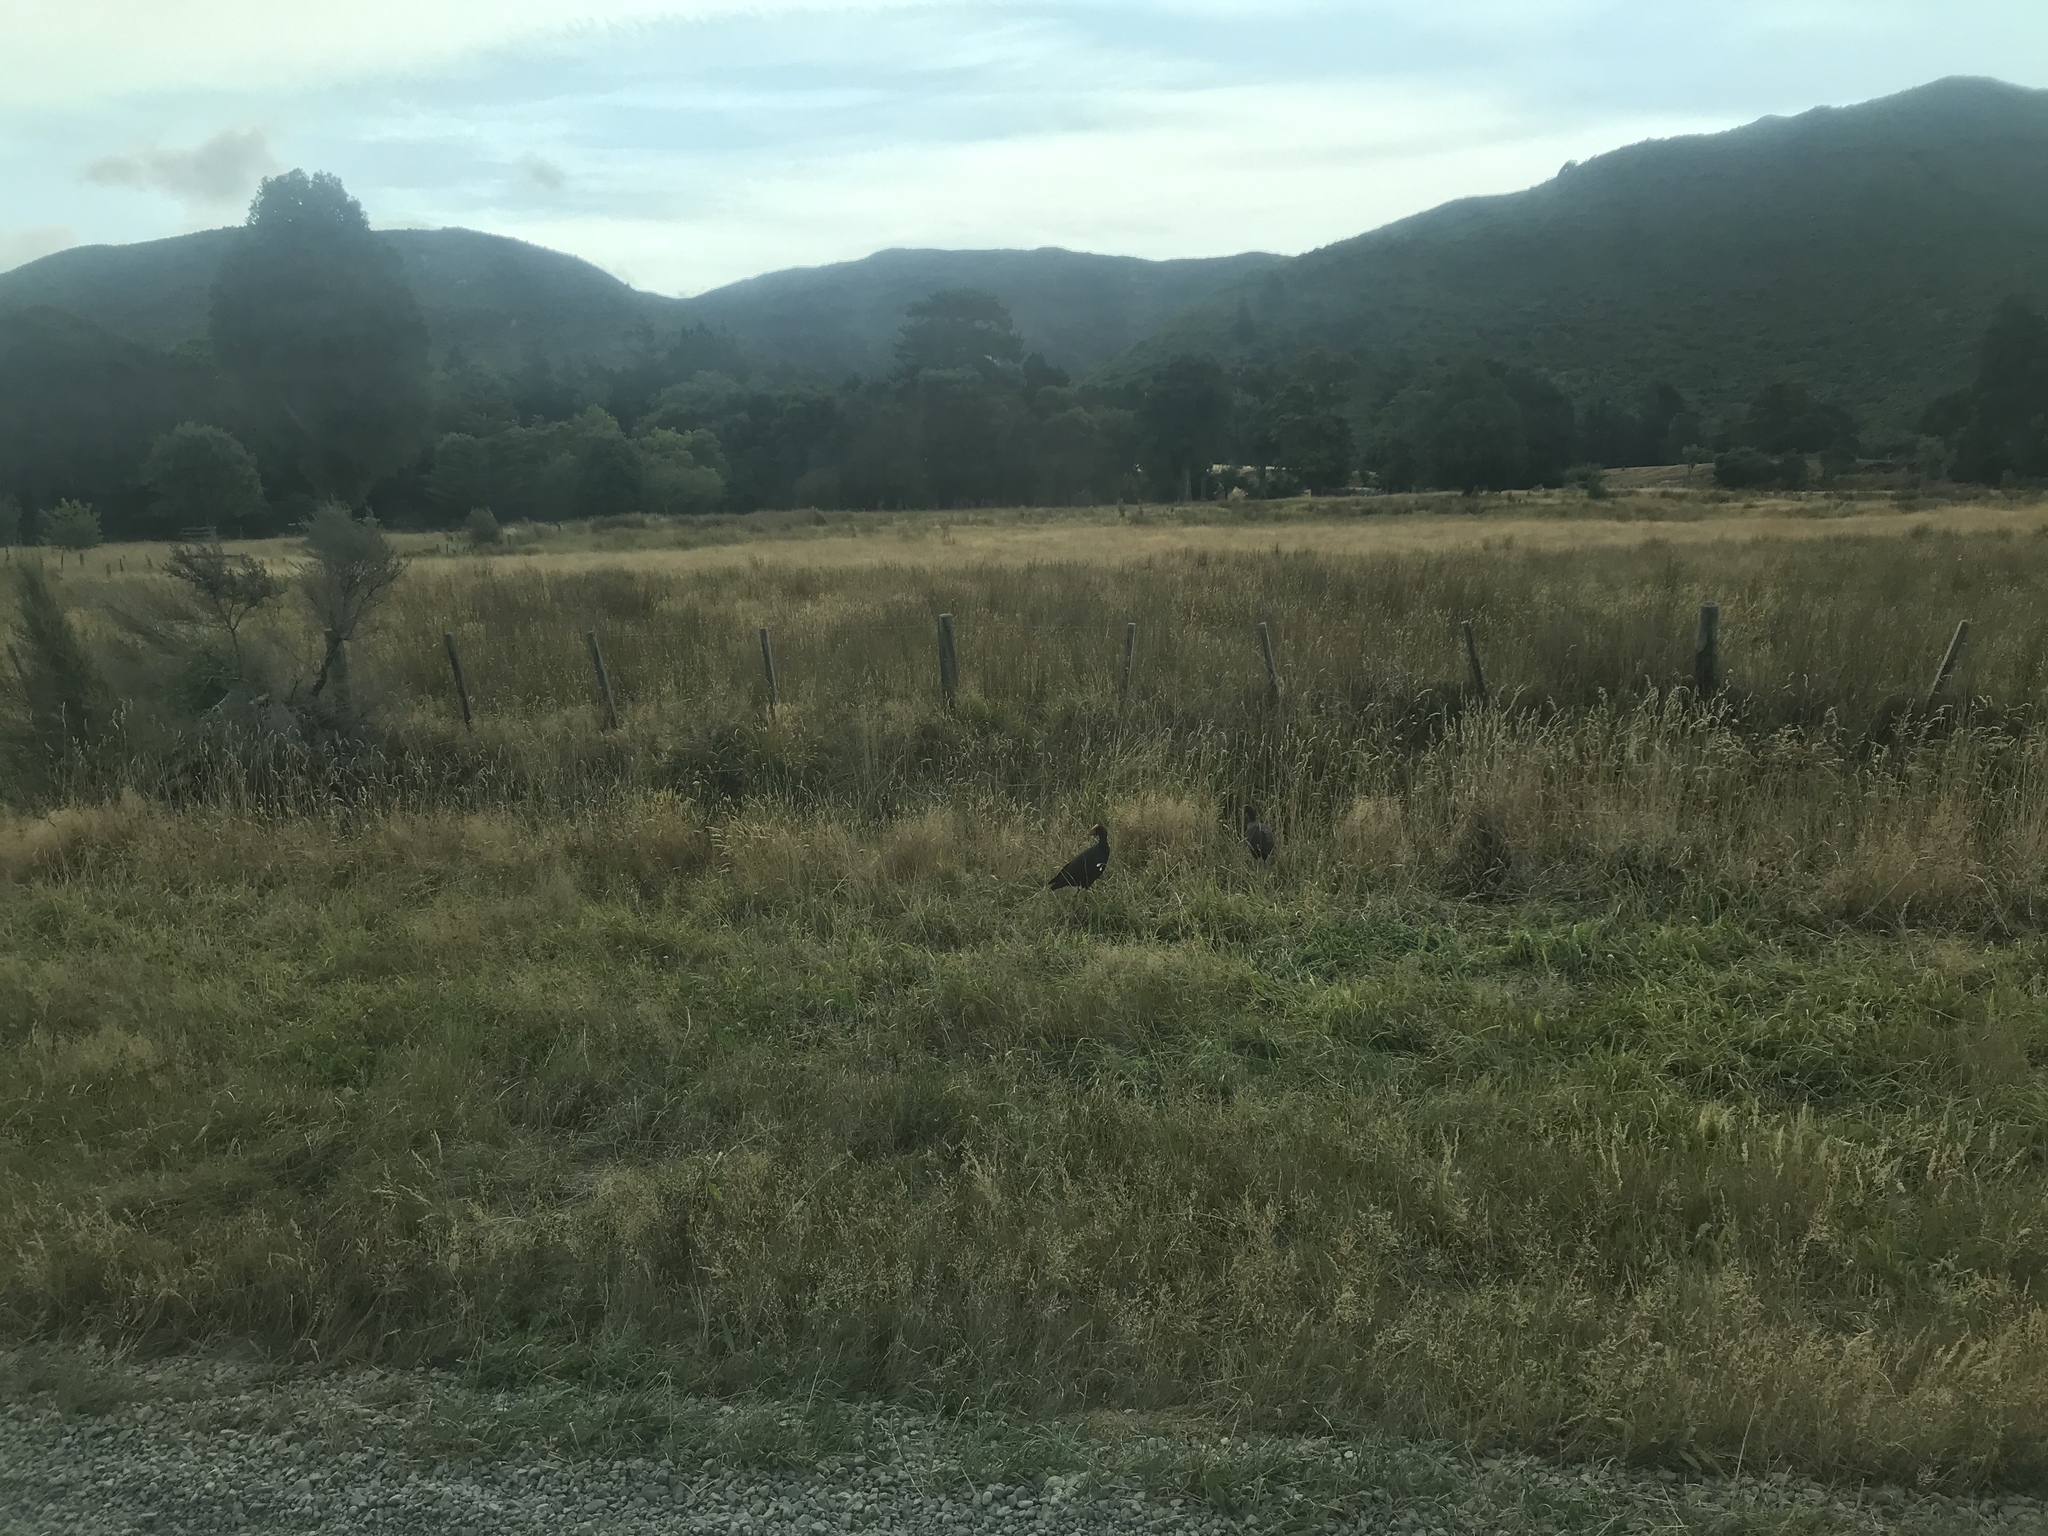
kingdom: Animalia
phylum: Chordata
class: Aves
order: Gruiformes
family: Rallidae
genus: Porphyrio
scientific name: Porphyrio melanotus
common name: Australasian swamphen
